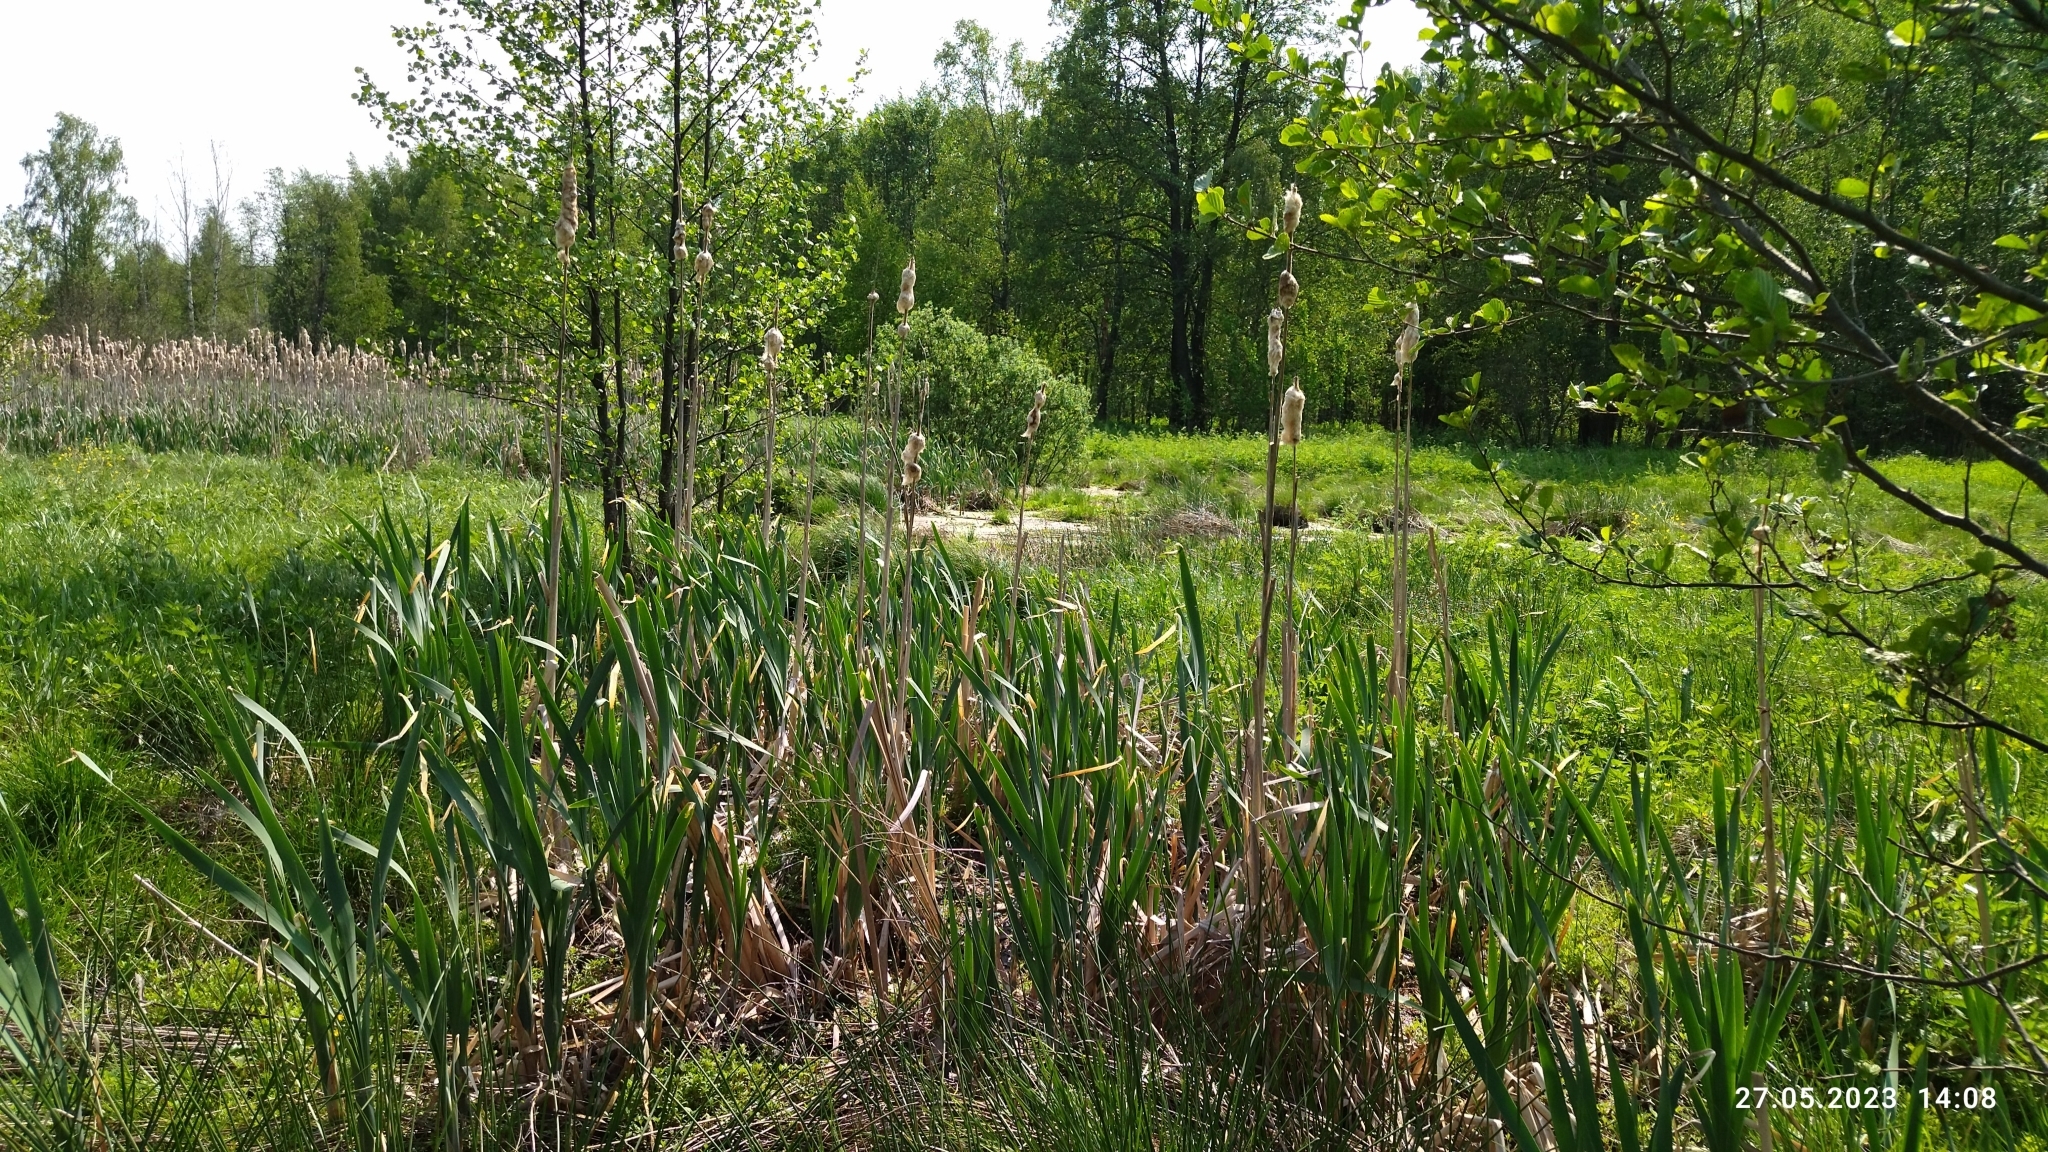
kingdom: Plantae
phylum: Tracheophyta
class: Liliopsida
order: Poales
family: Typhaceae
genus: Typha
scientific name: Typha latifolia
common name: Broadleaf cattail
